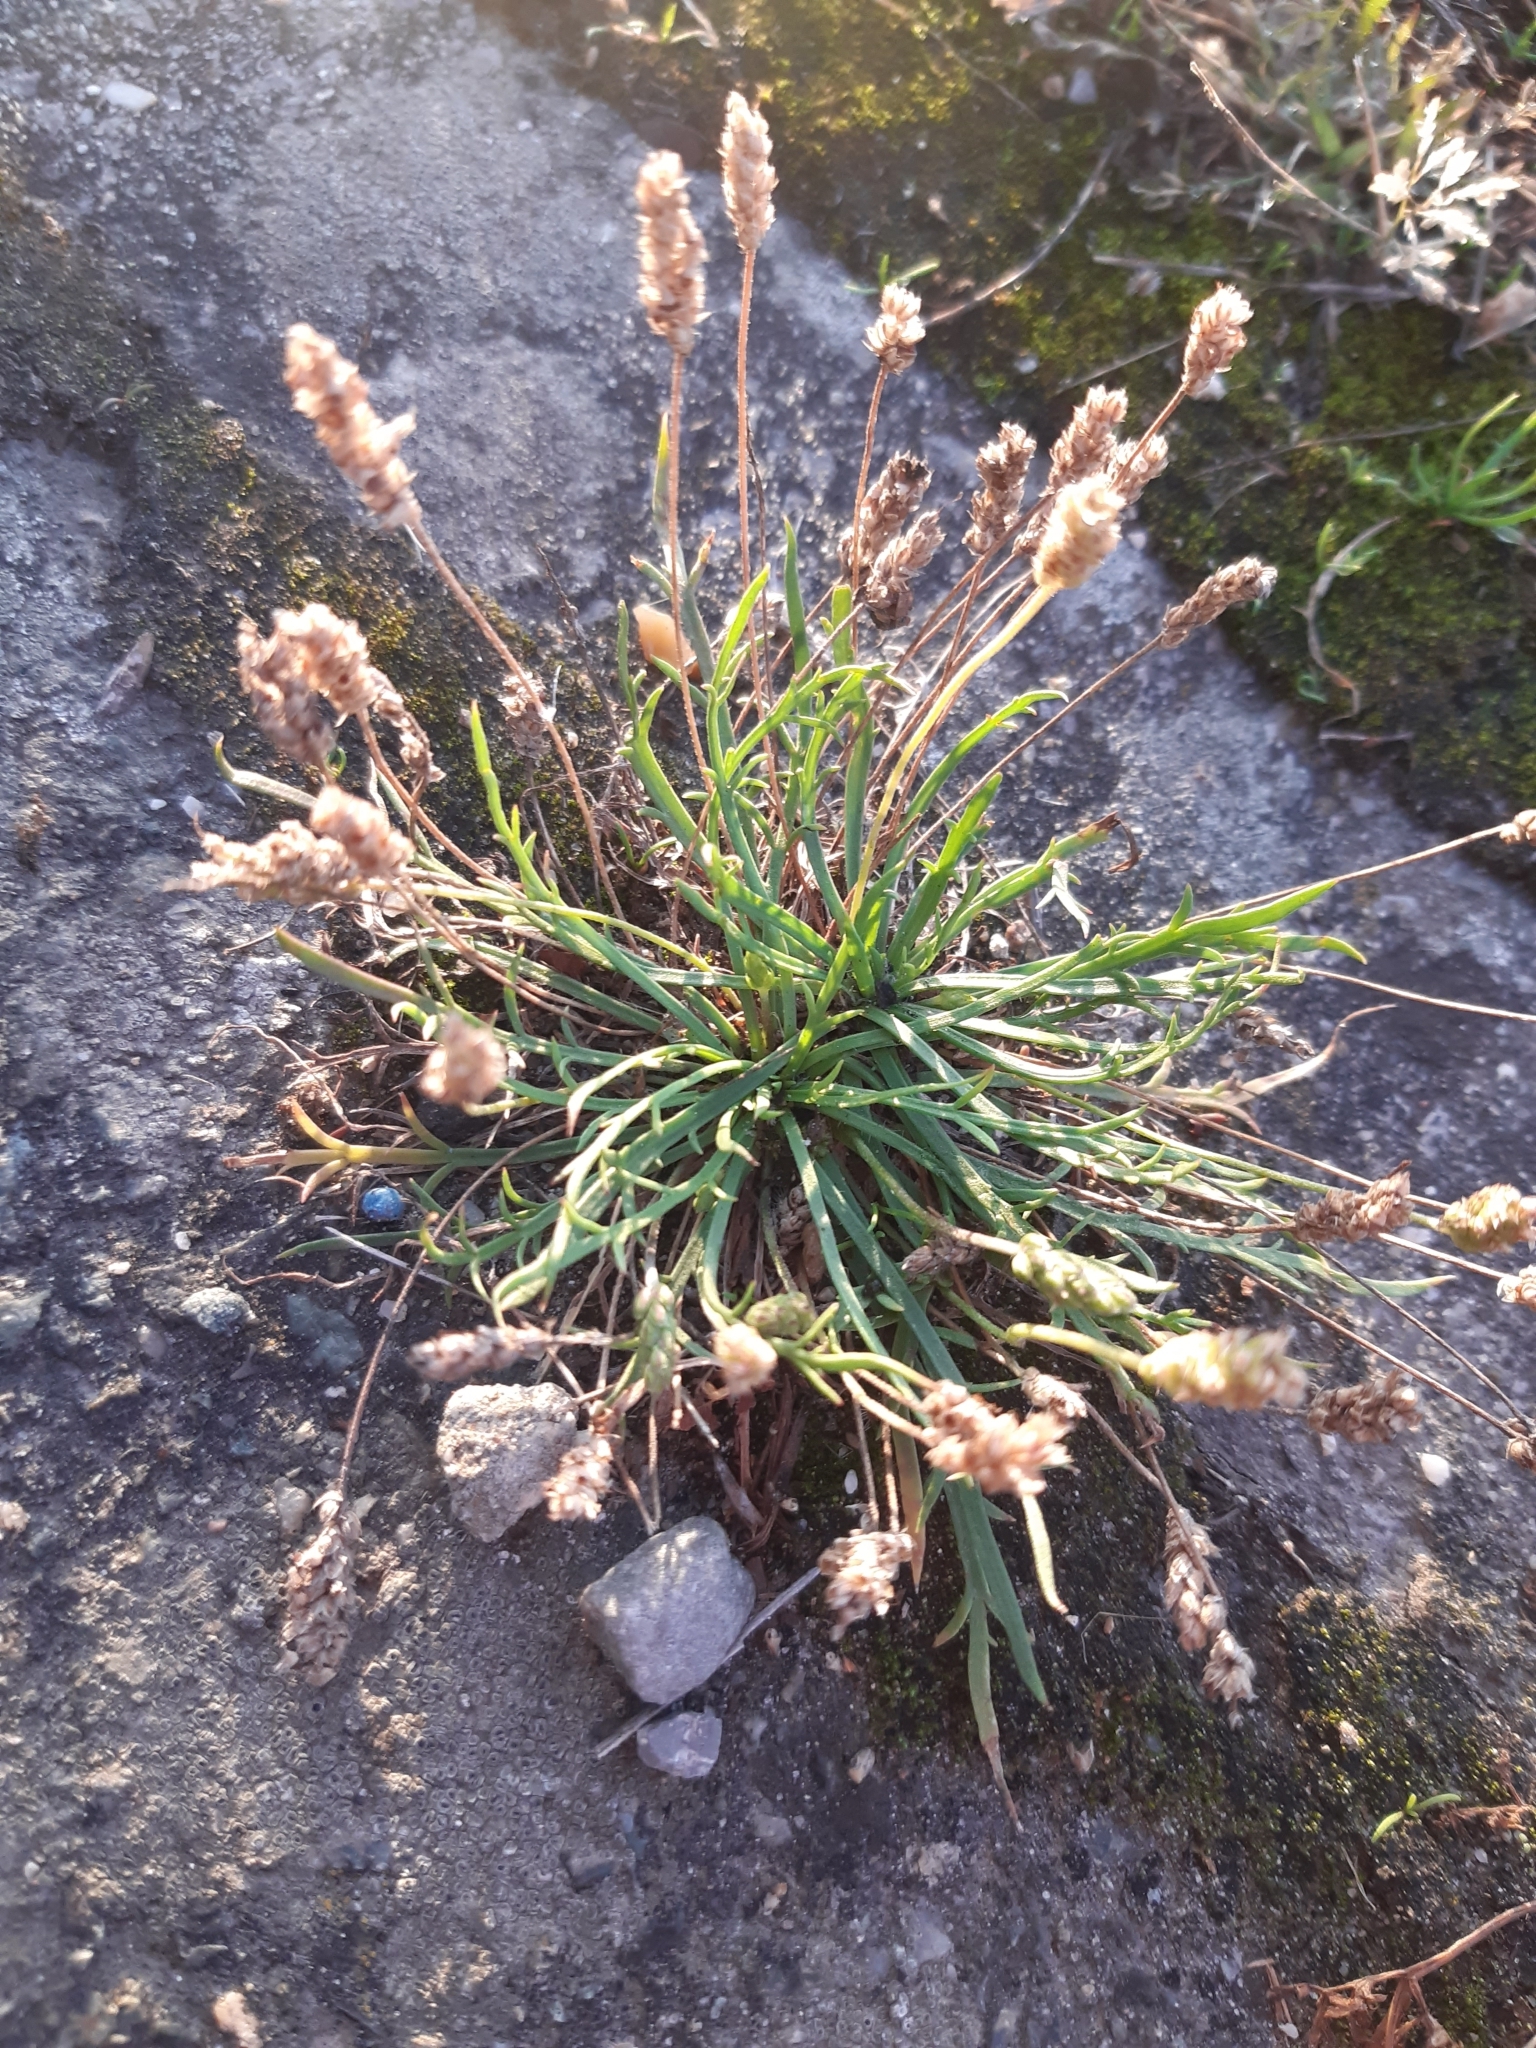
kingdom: Plantae
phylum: Tracheophyta
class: Magnoliopsida
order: Lamiales
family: Plantaginaceae
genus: Plantago
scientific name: Plantago coronopus
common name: Buck's-horn plantain
